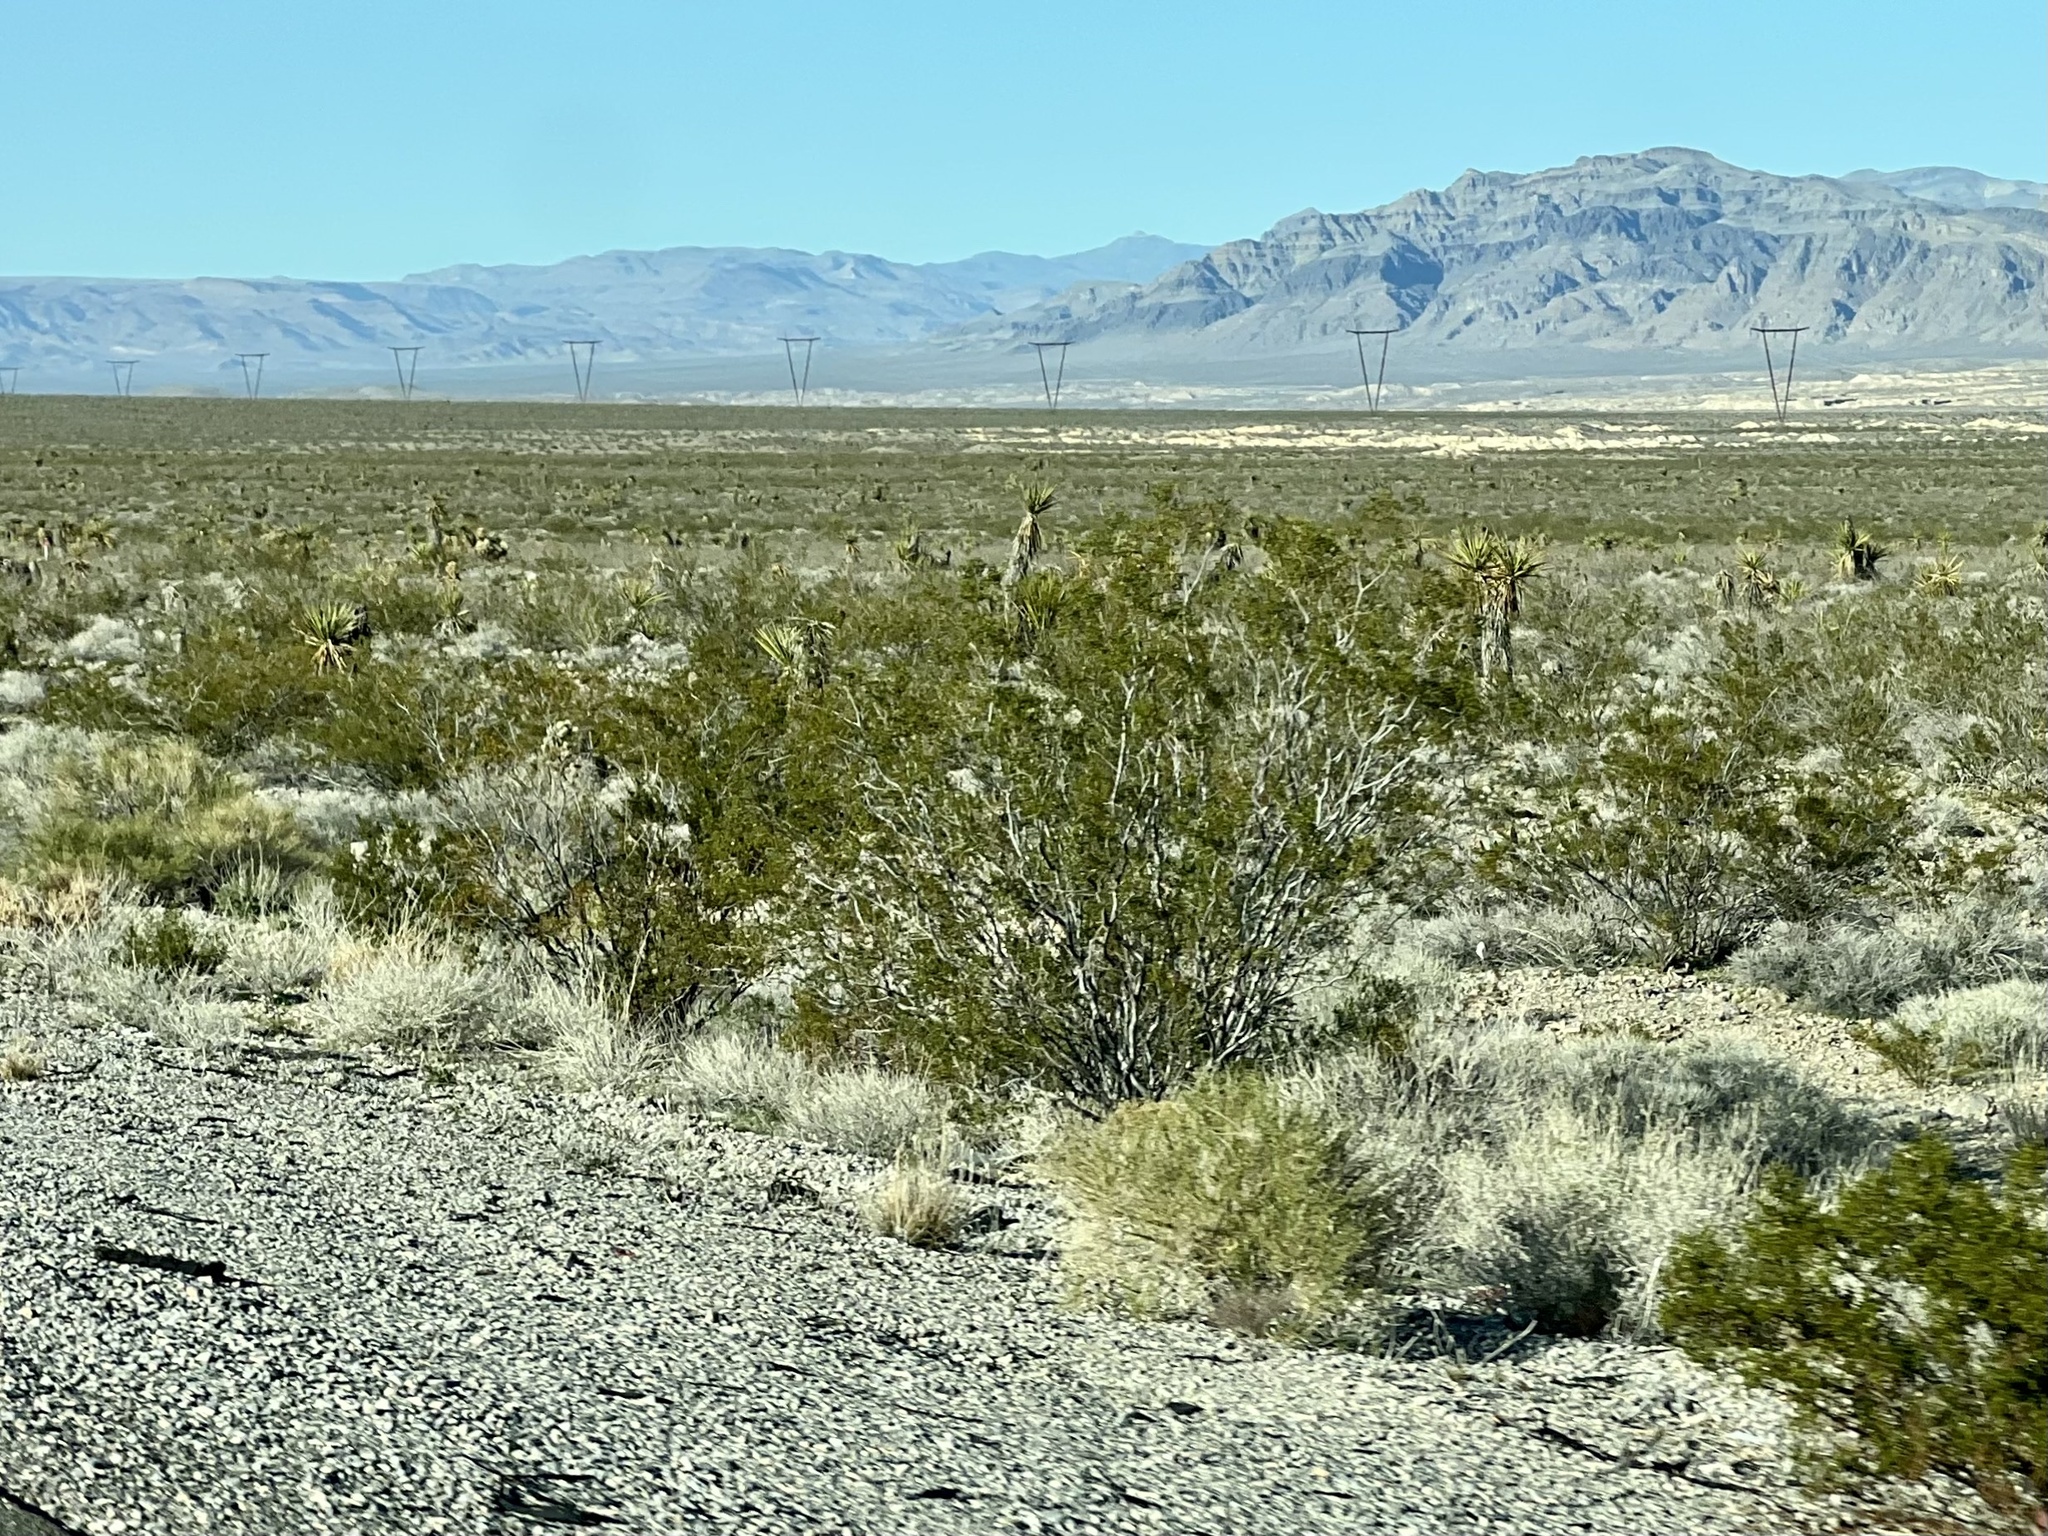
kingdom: Plantae
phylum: Tracheophyta
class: Magnoliopsida
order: Zygophyllales
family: Zygophyllaceae
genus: Larrea
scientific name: Larrea tridentata
